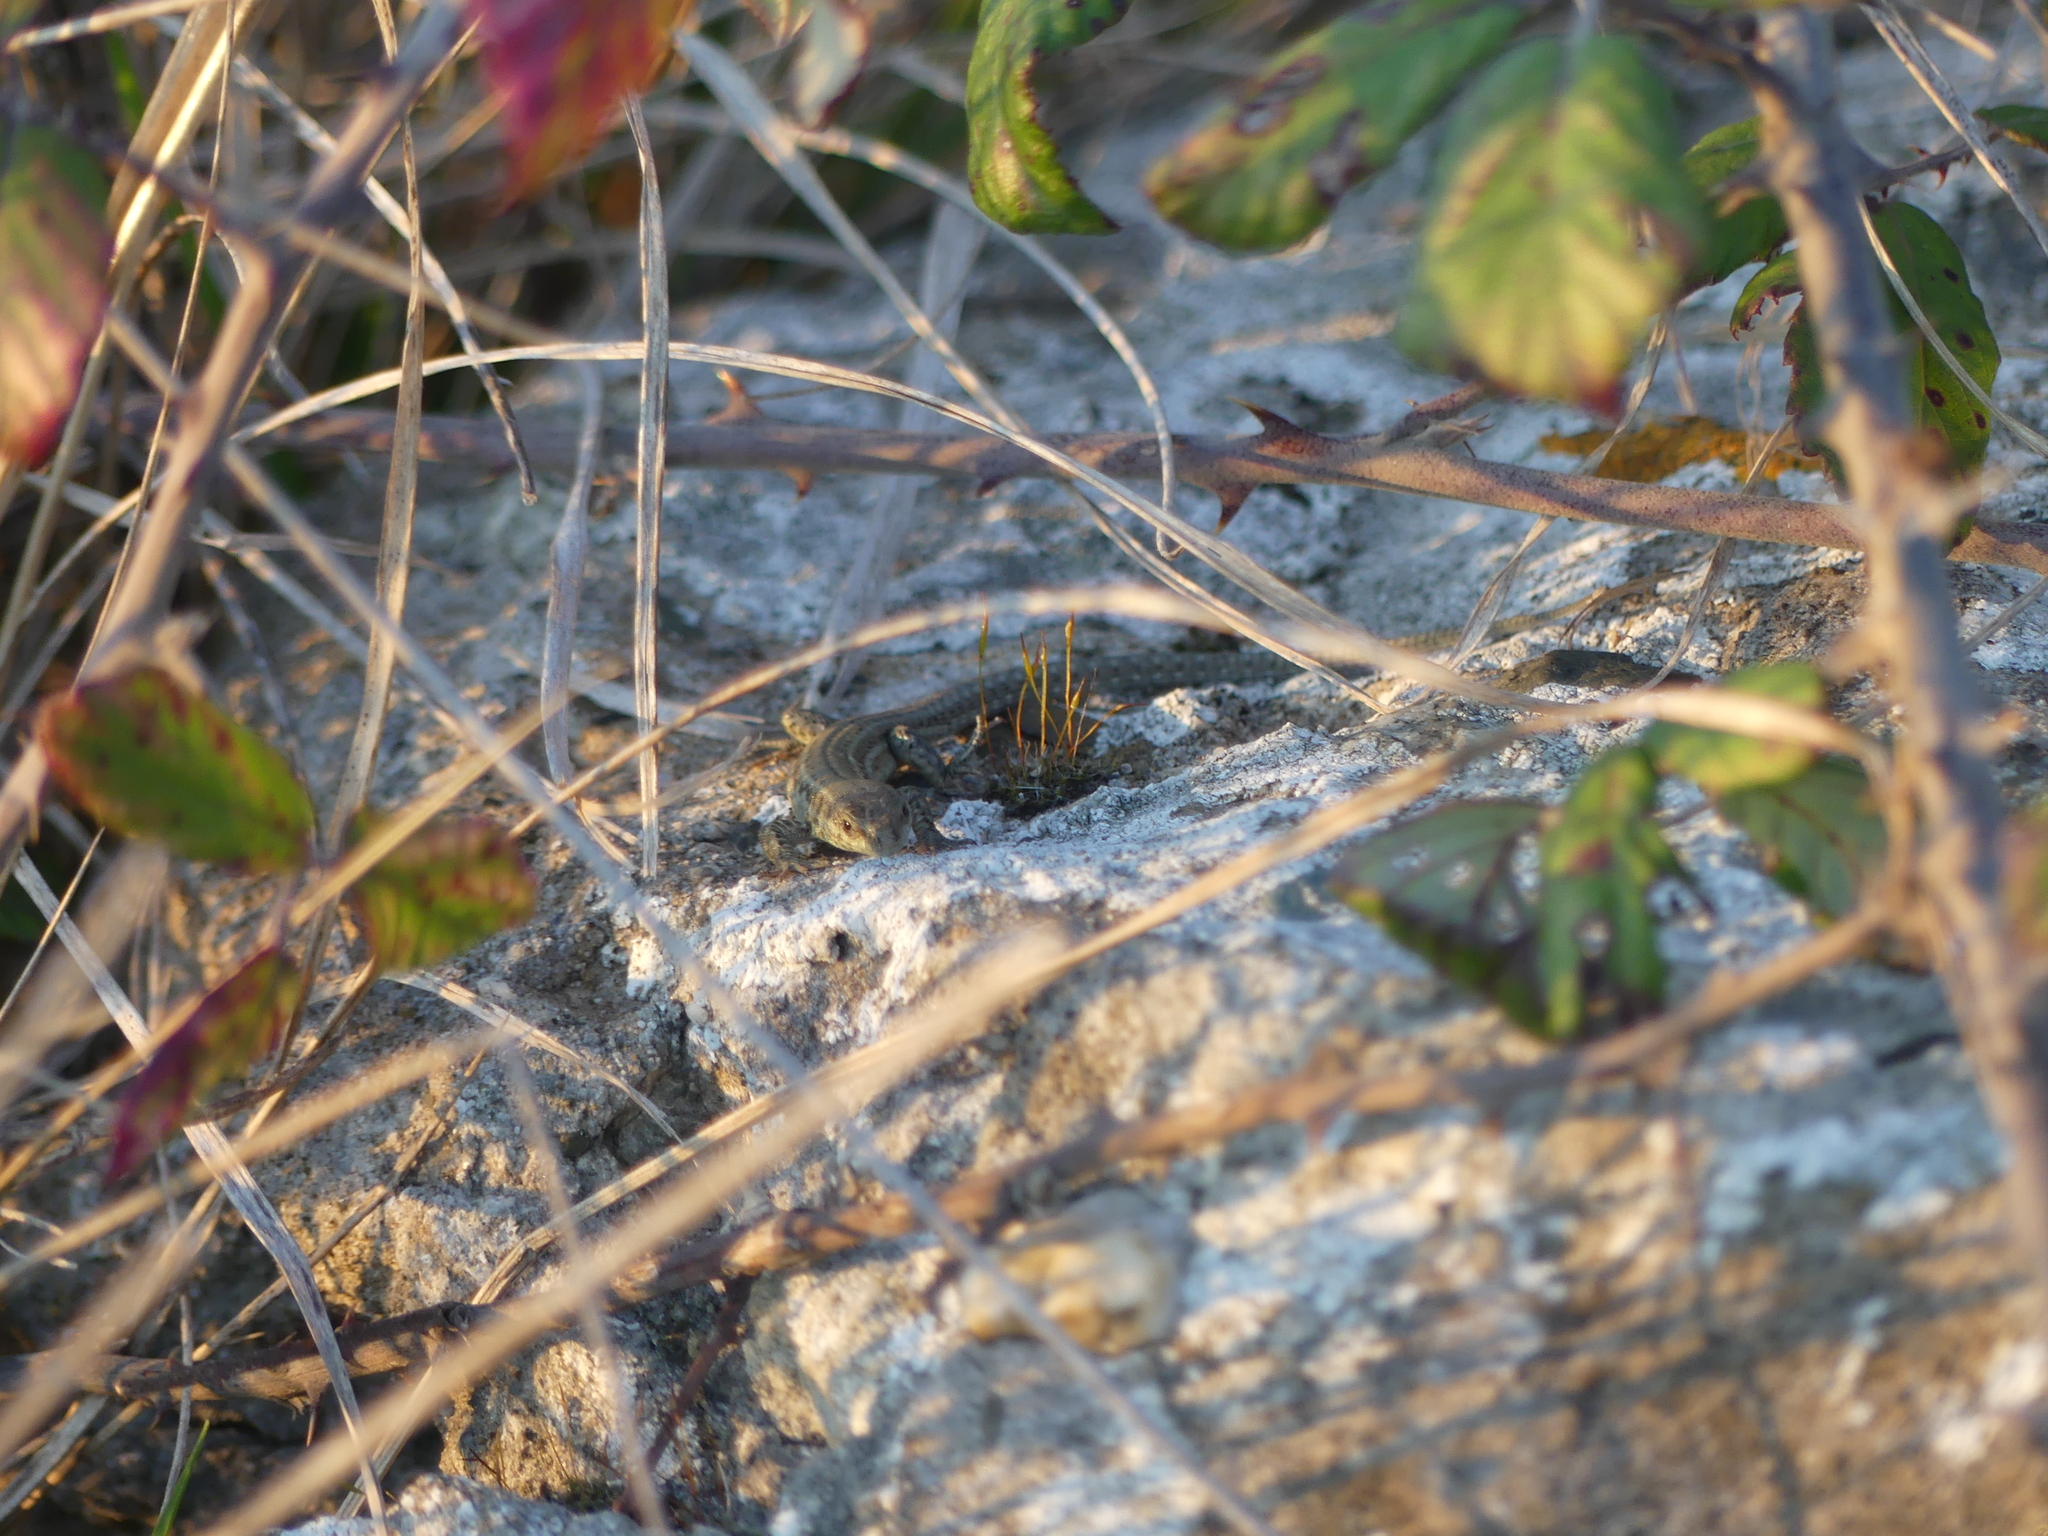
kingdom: Animalia
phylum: Chordata
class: Squamata
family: Lacertidae
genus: Podarcis
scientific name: Podarcis liolepis
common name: Catalonian wall lizard
